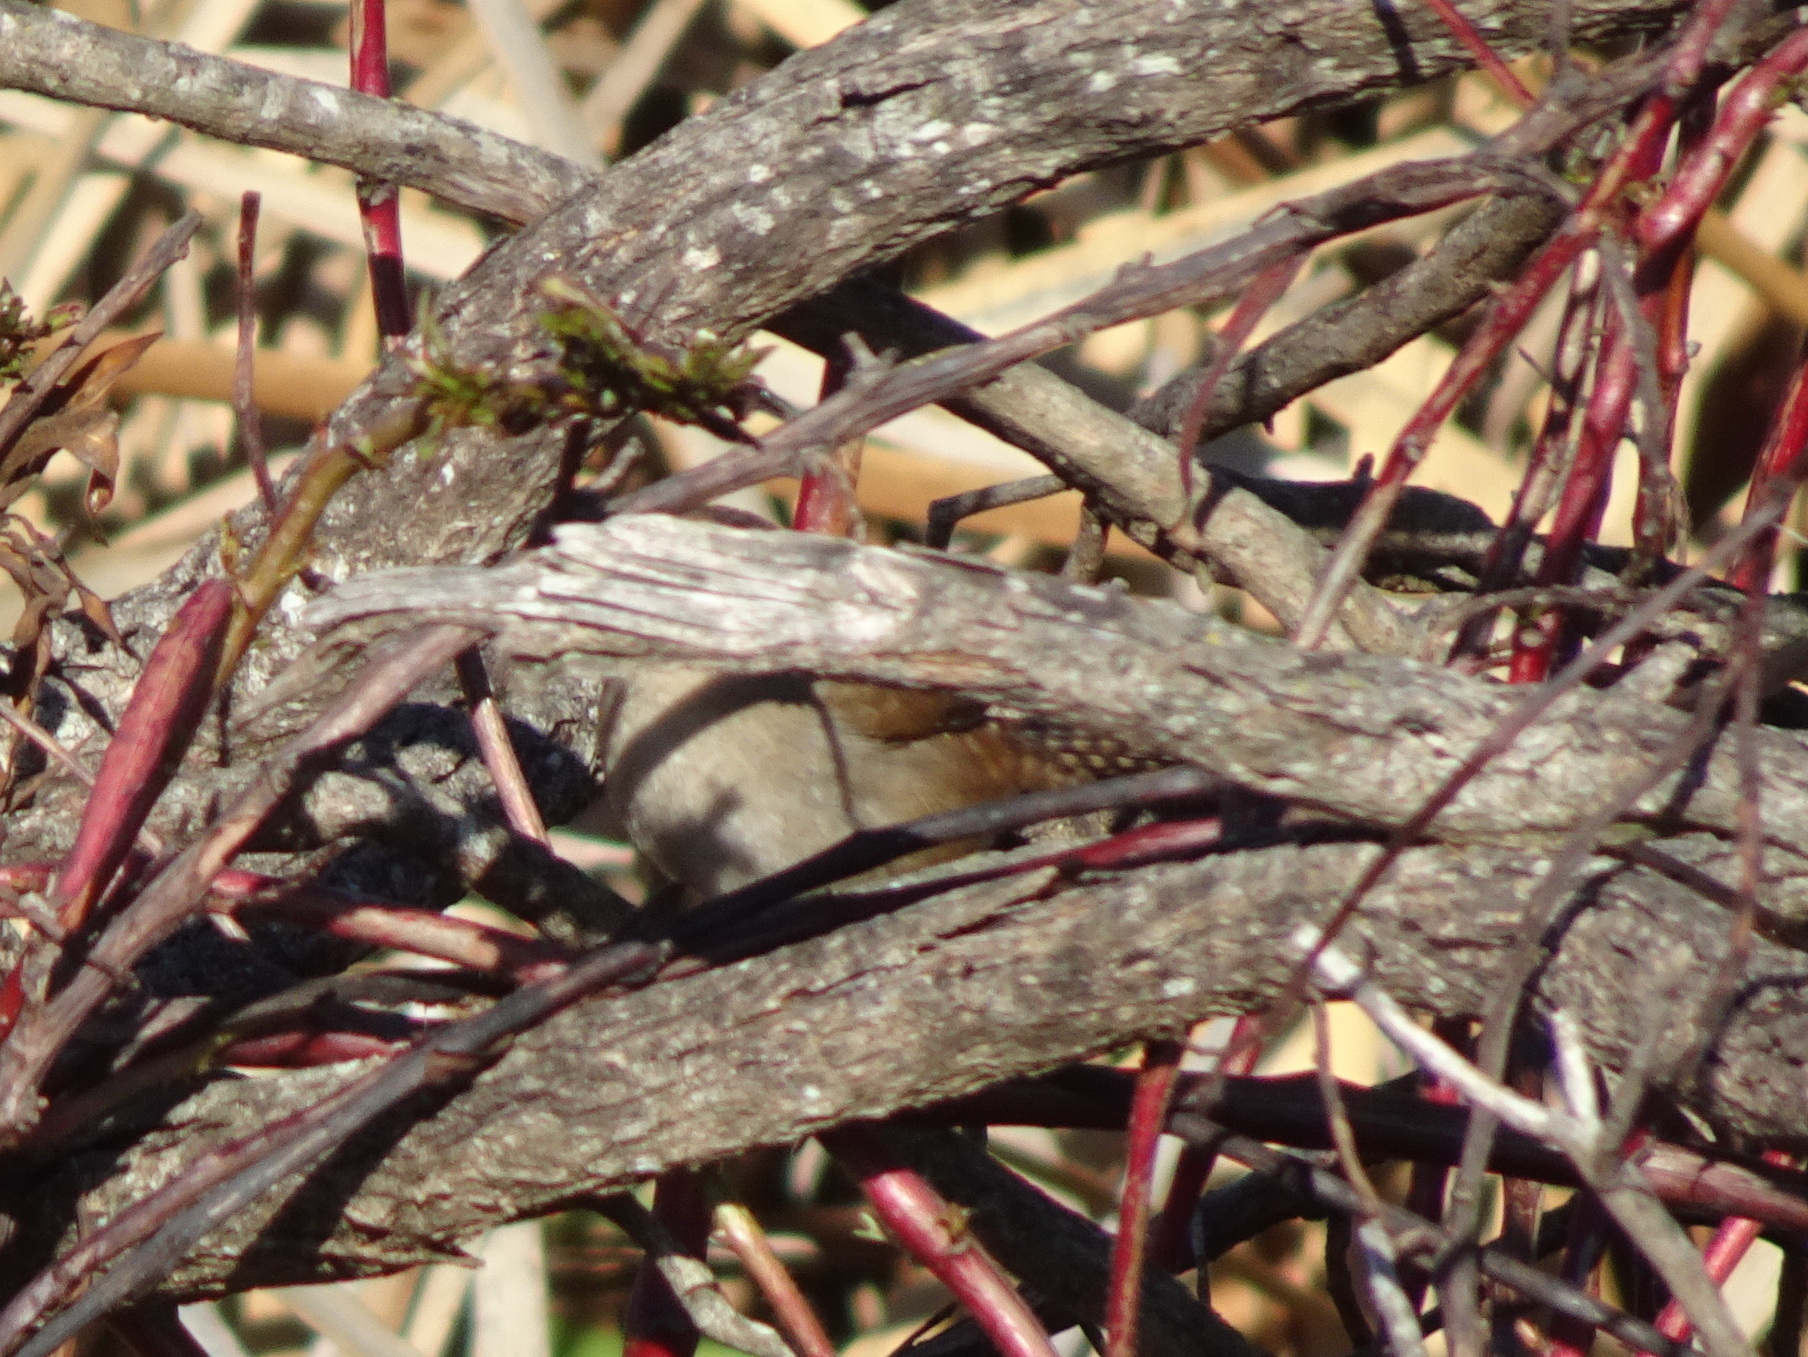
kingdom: Animalia
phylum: Chordata
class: Aves
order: Passeriformes
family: Troglodytidae
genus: Cistothorus
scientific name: Cistothorus palustris
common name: Marsh wren
